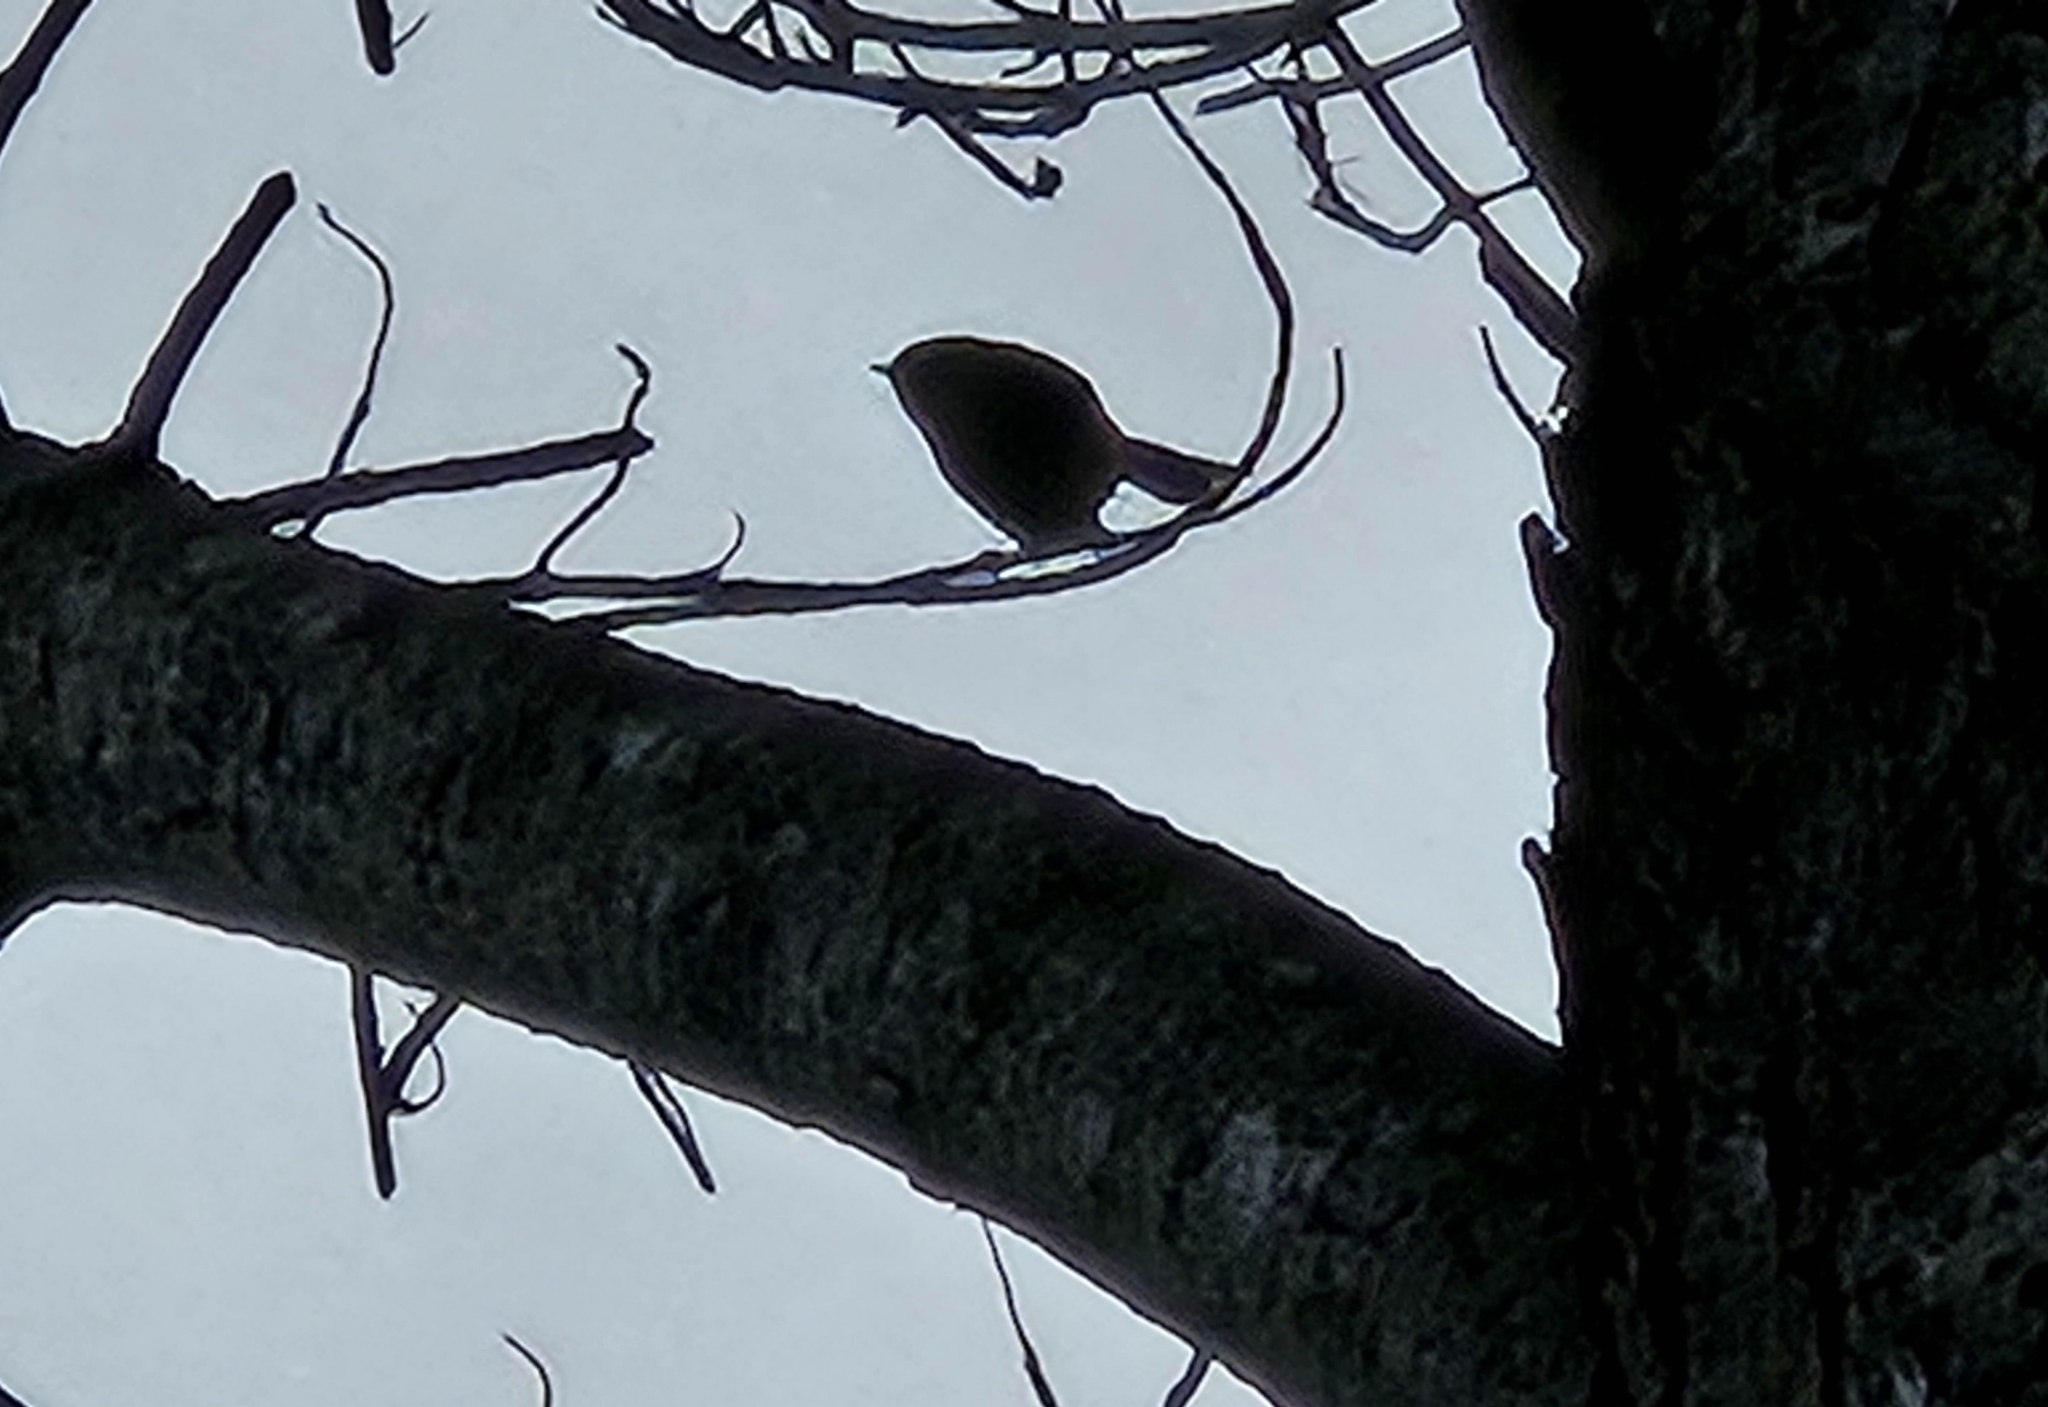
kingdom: Animalia
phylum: Chordata
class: Aves
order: Passeriformes
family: Acanthizidae
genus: Gerygone
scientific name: Gerygone igata
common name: Grey gerygone
